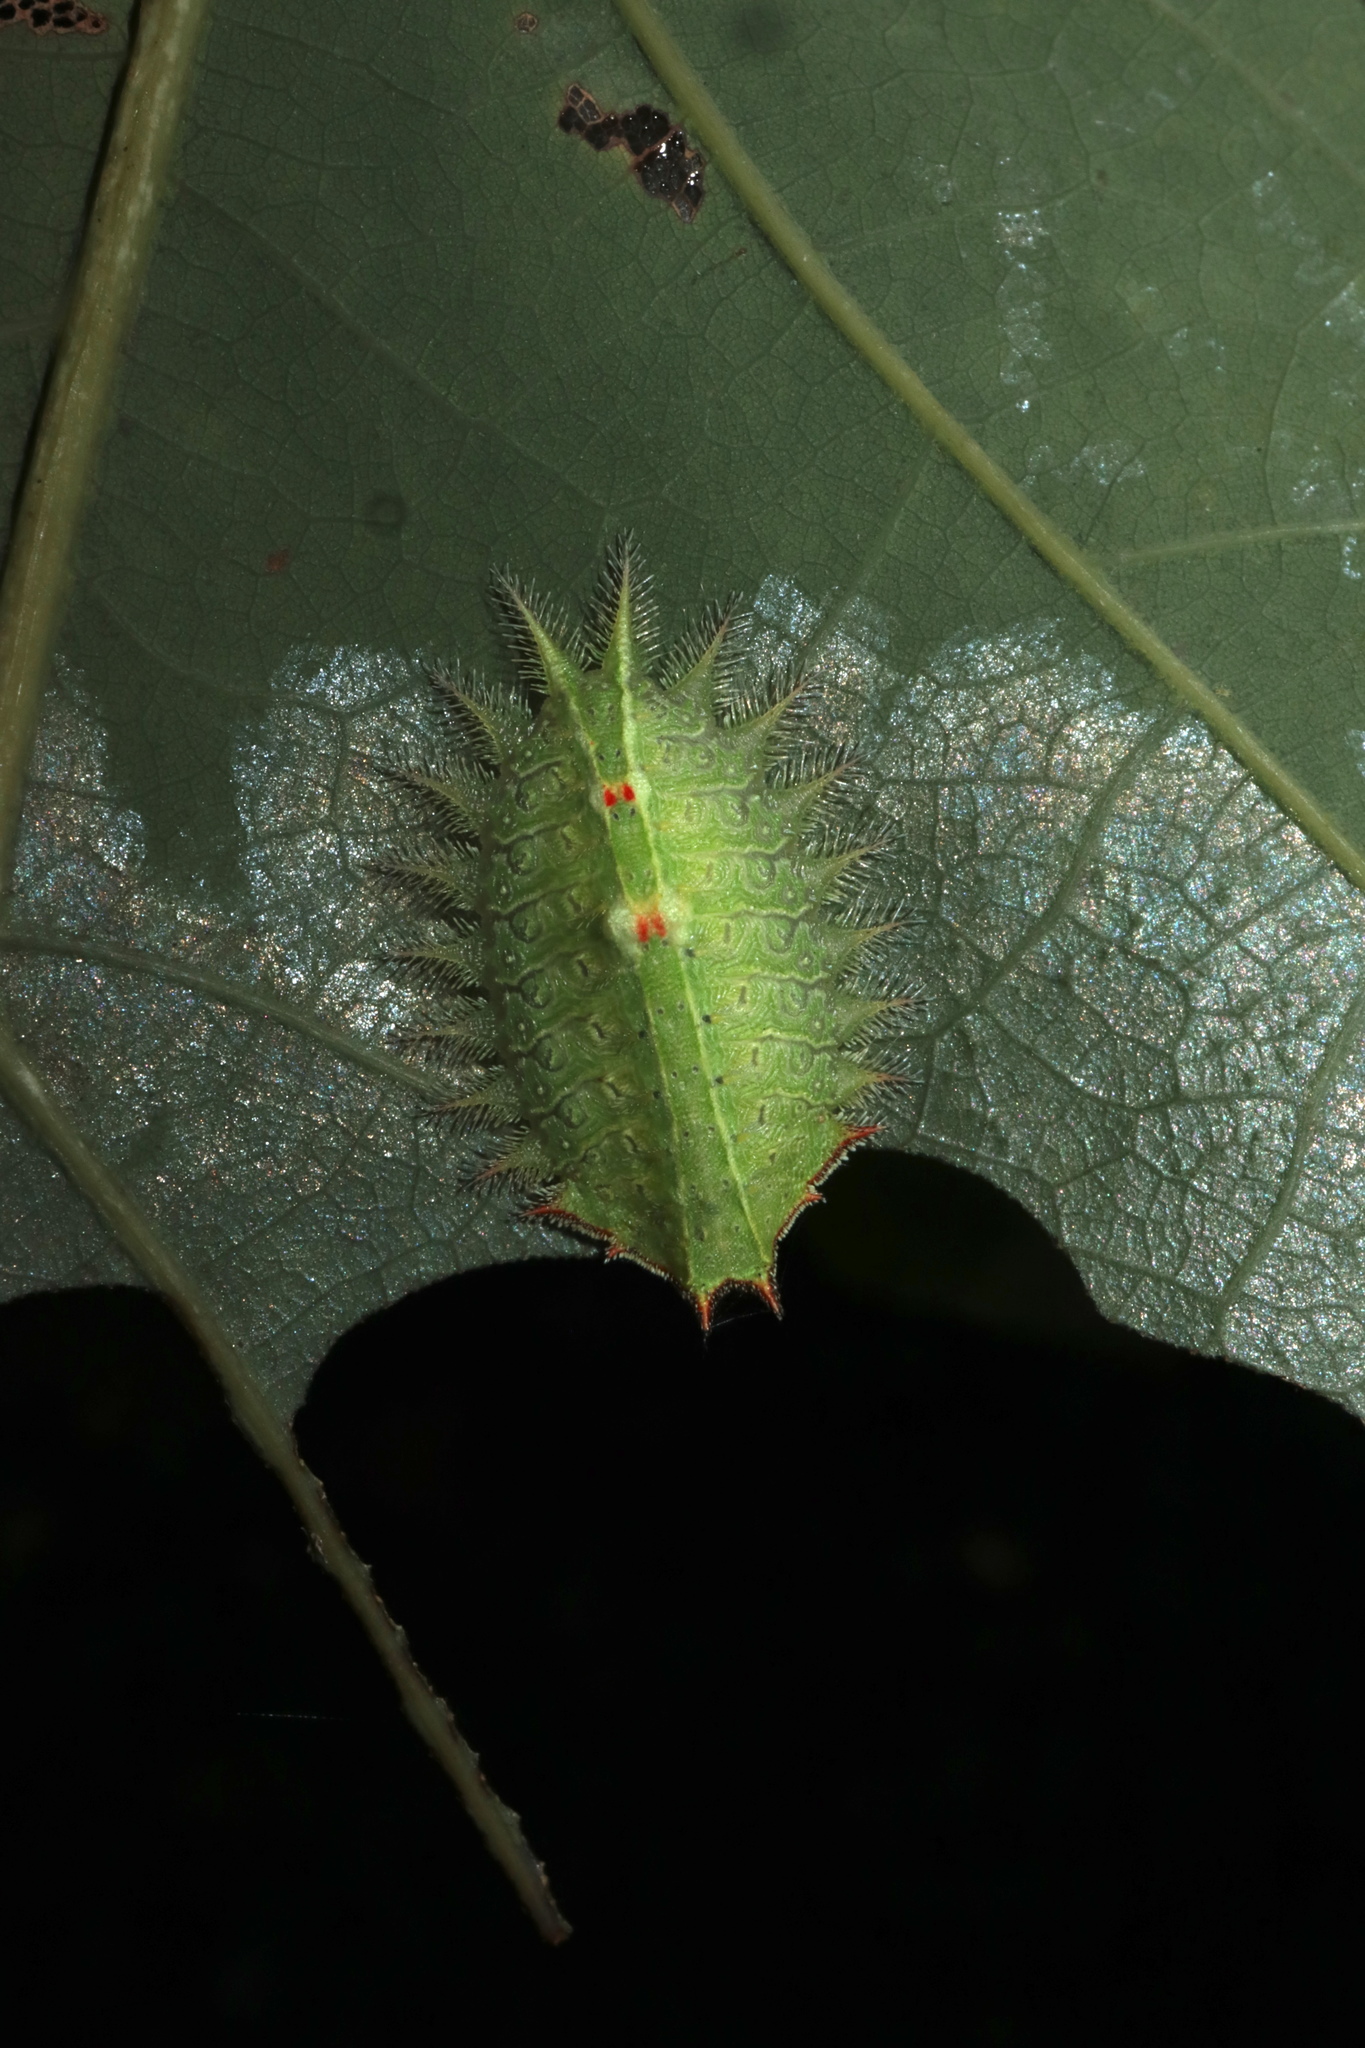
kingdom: Animalia
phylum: Arthropoda
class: Insecta
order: Lepidoptera
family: Limacodidae
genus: Isa
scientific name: Isa textula
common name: Crowned slug moth
